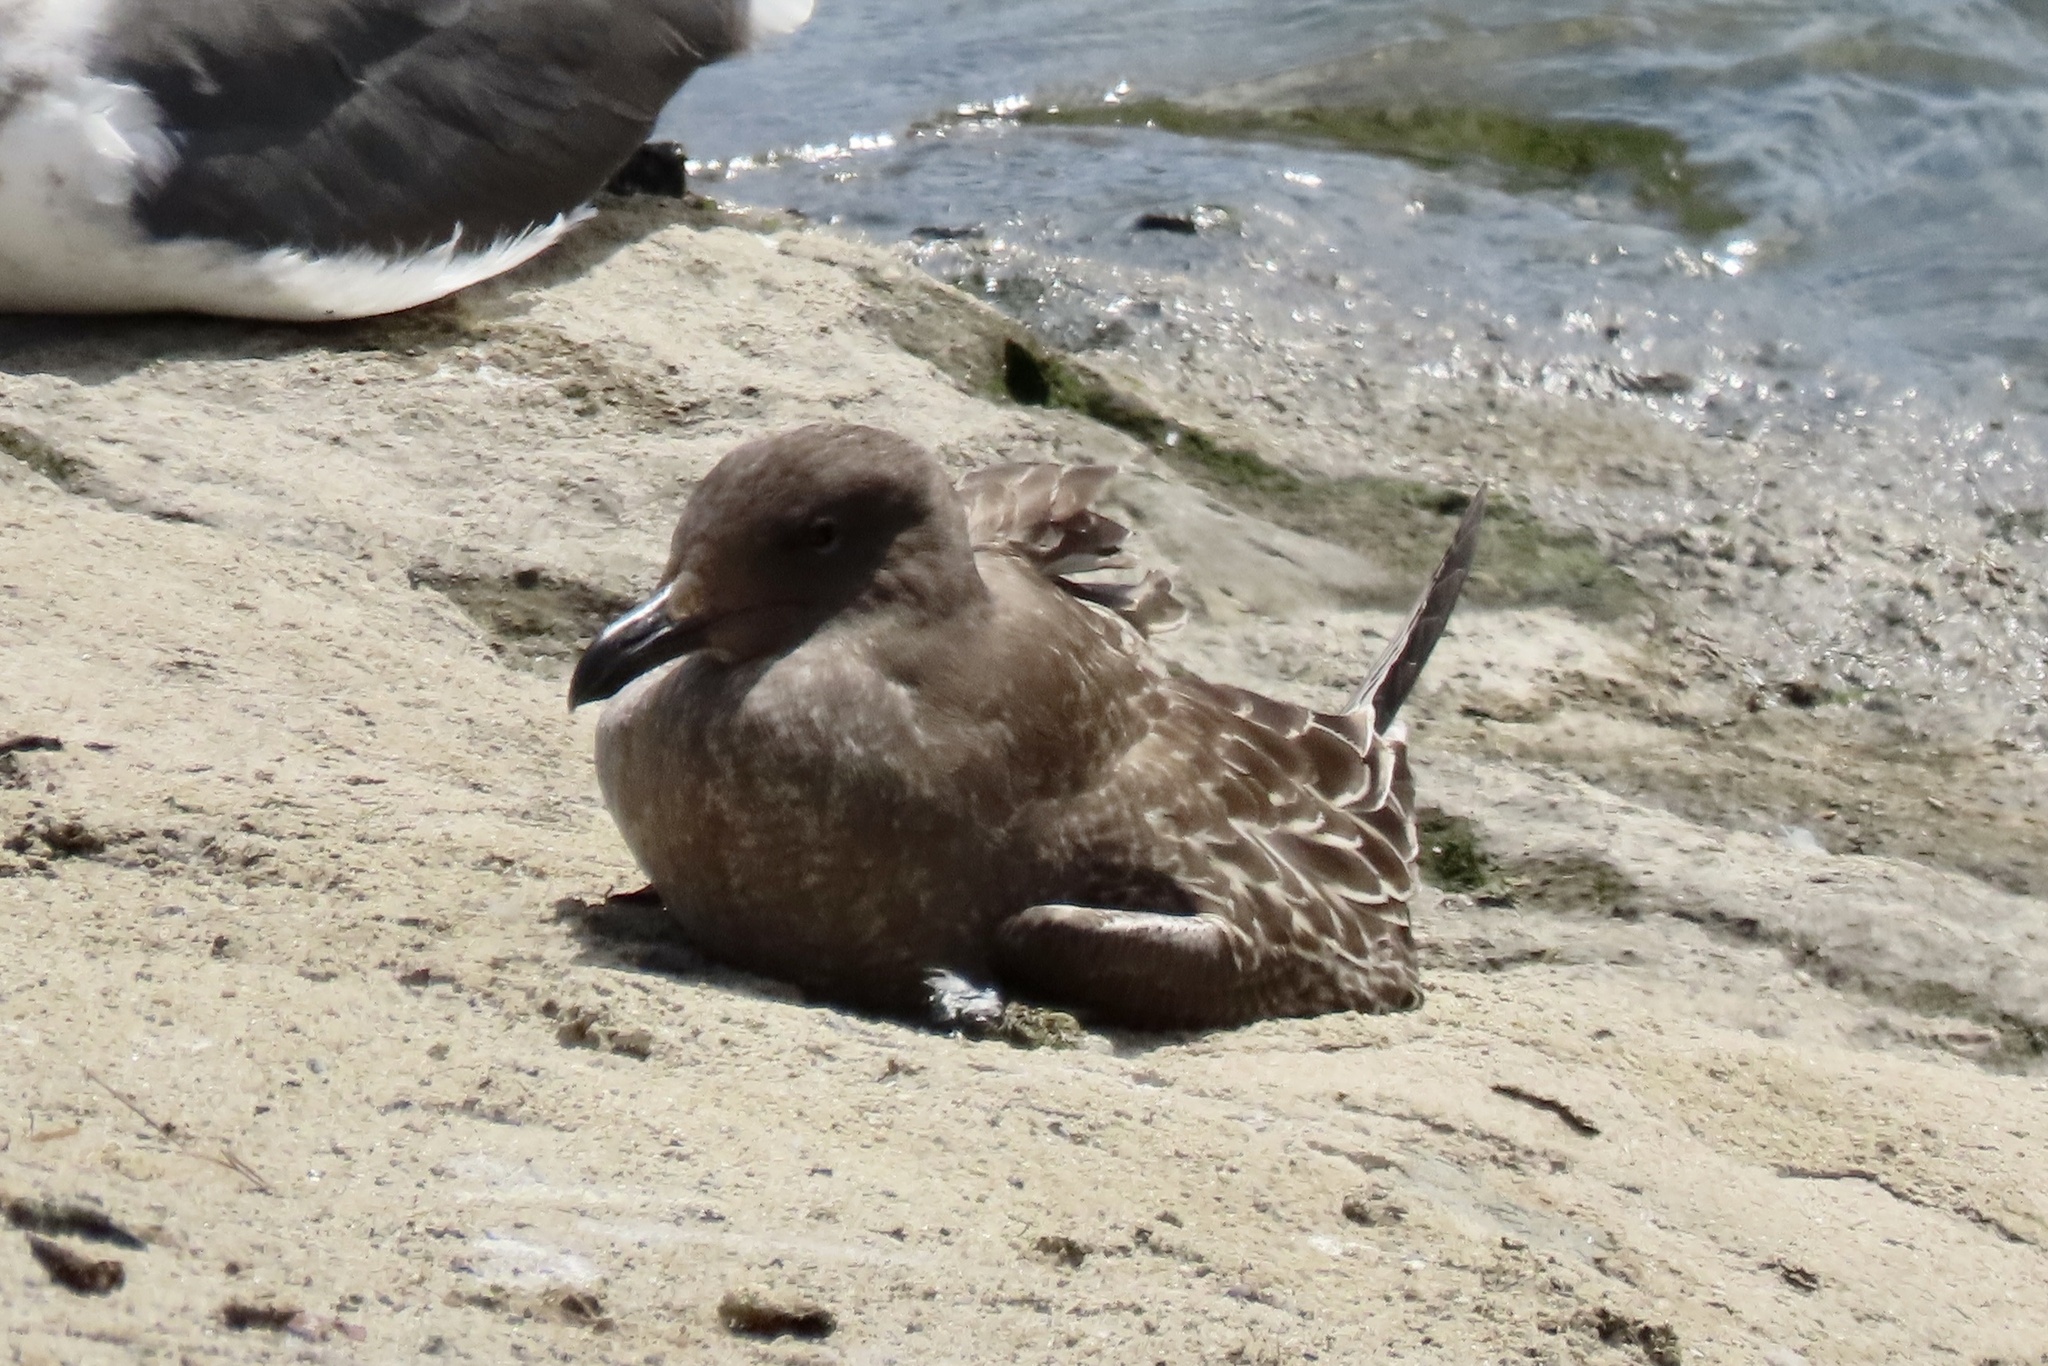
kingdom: Animalia
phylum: Chordata
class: Aves
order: Charadriiformes
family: Laridae
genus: Larus
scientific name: Larus occidentalis
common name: Western gull
